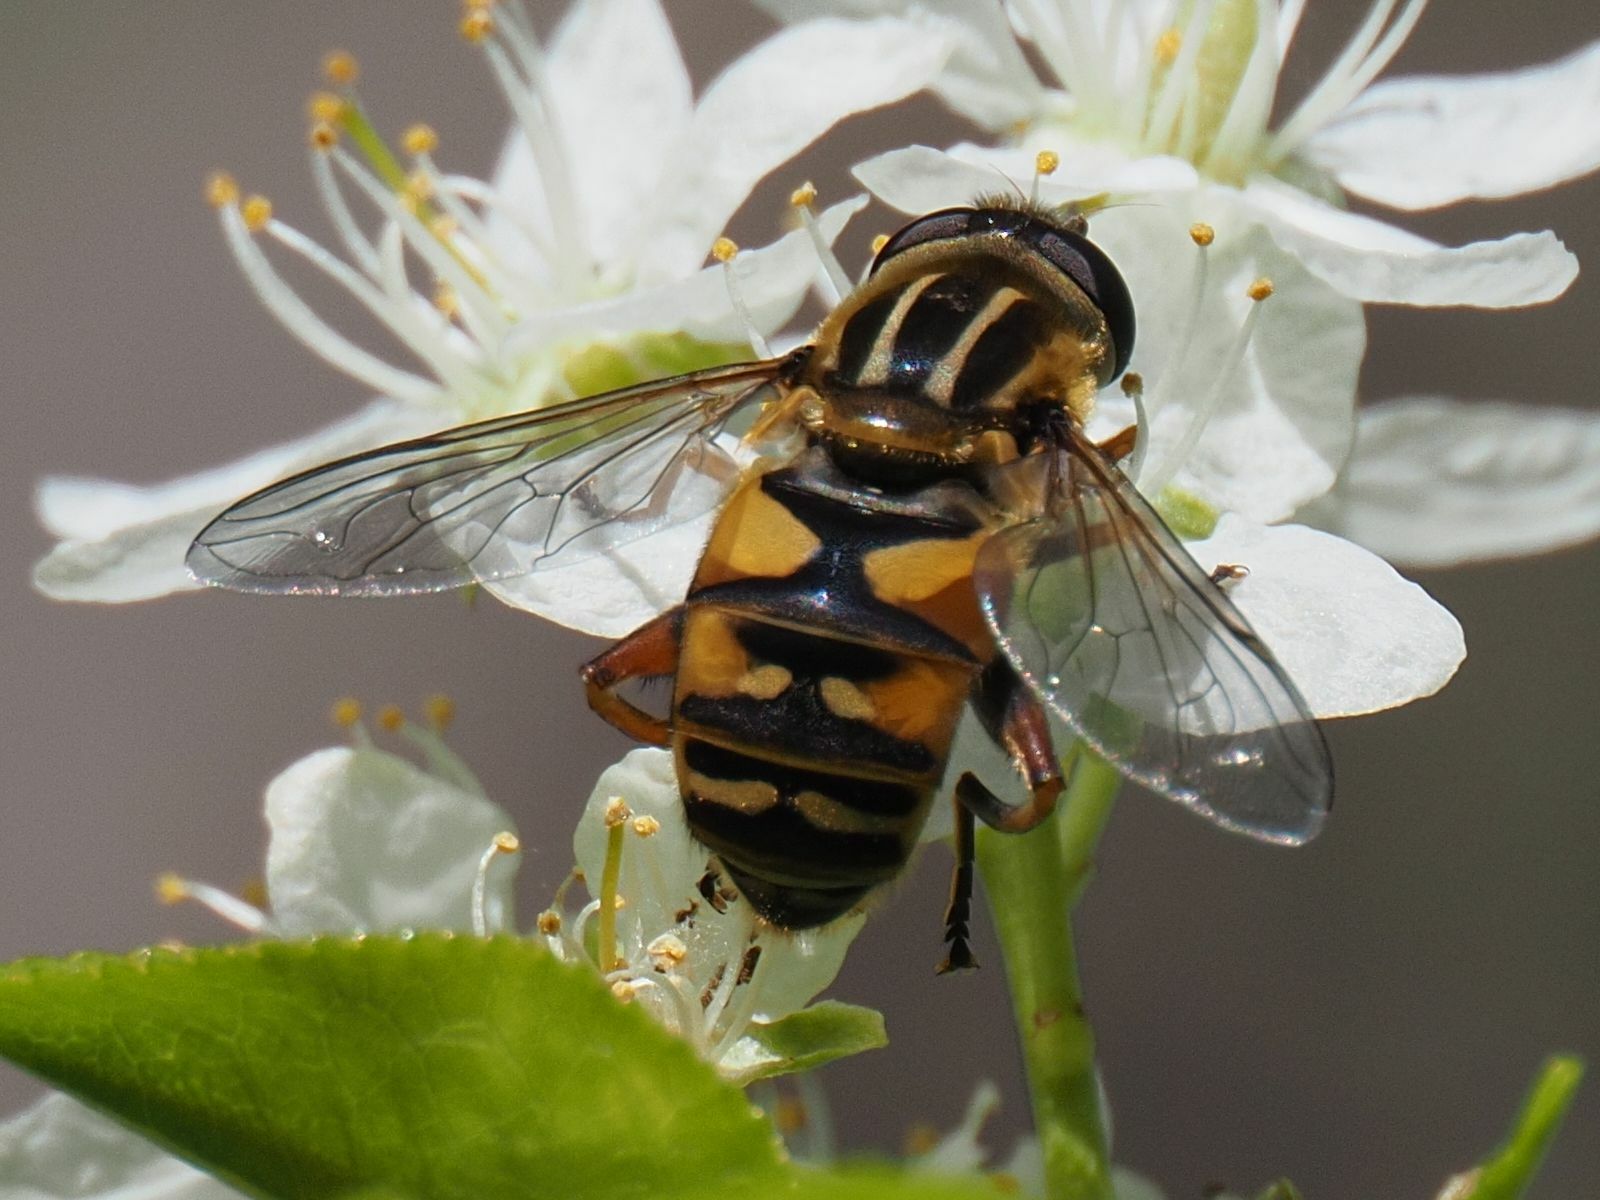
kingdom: Animalia
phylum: Arthropoda
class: Insecta
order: Diptera
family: Syrphidae
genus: Helophilus
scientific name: Helophilus pendulus
